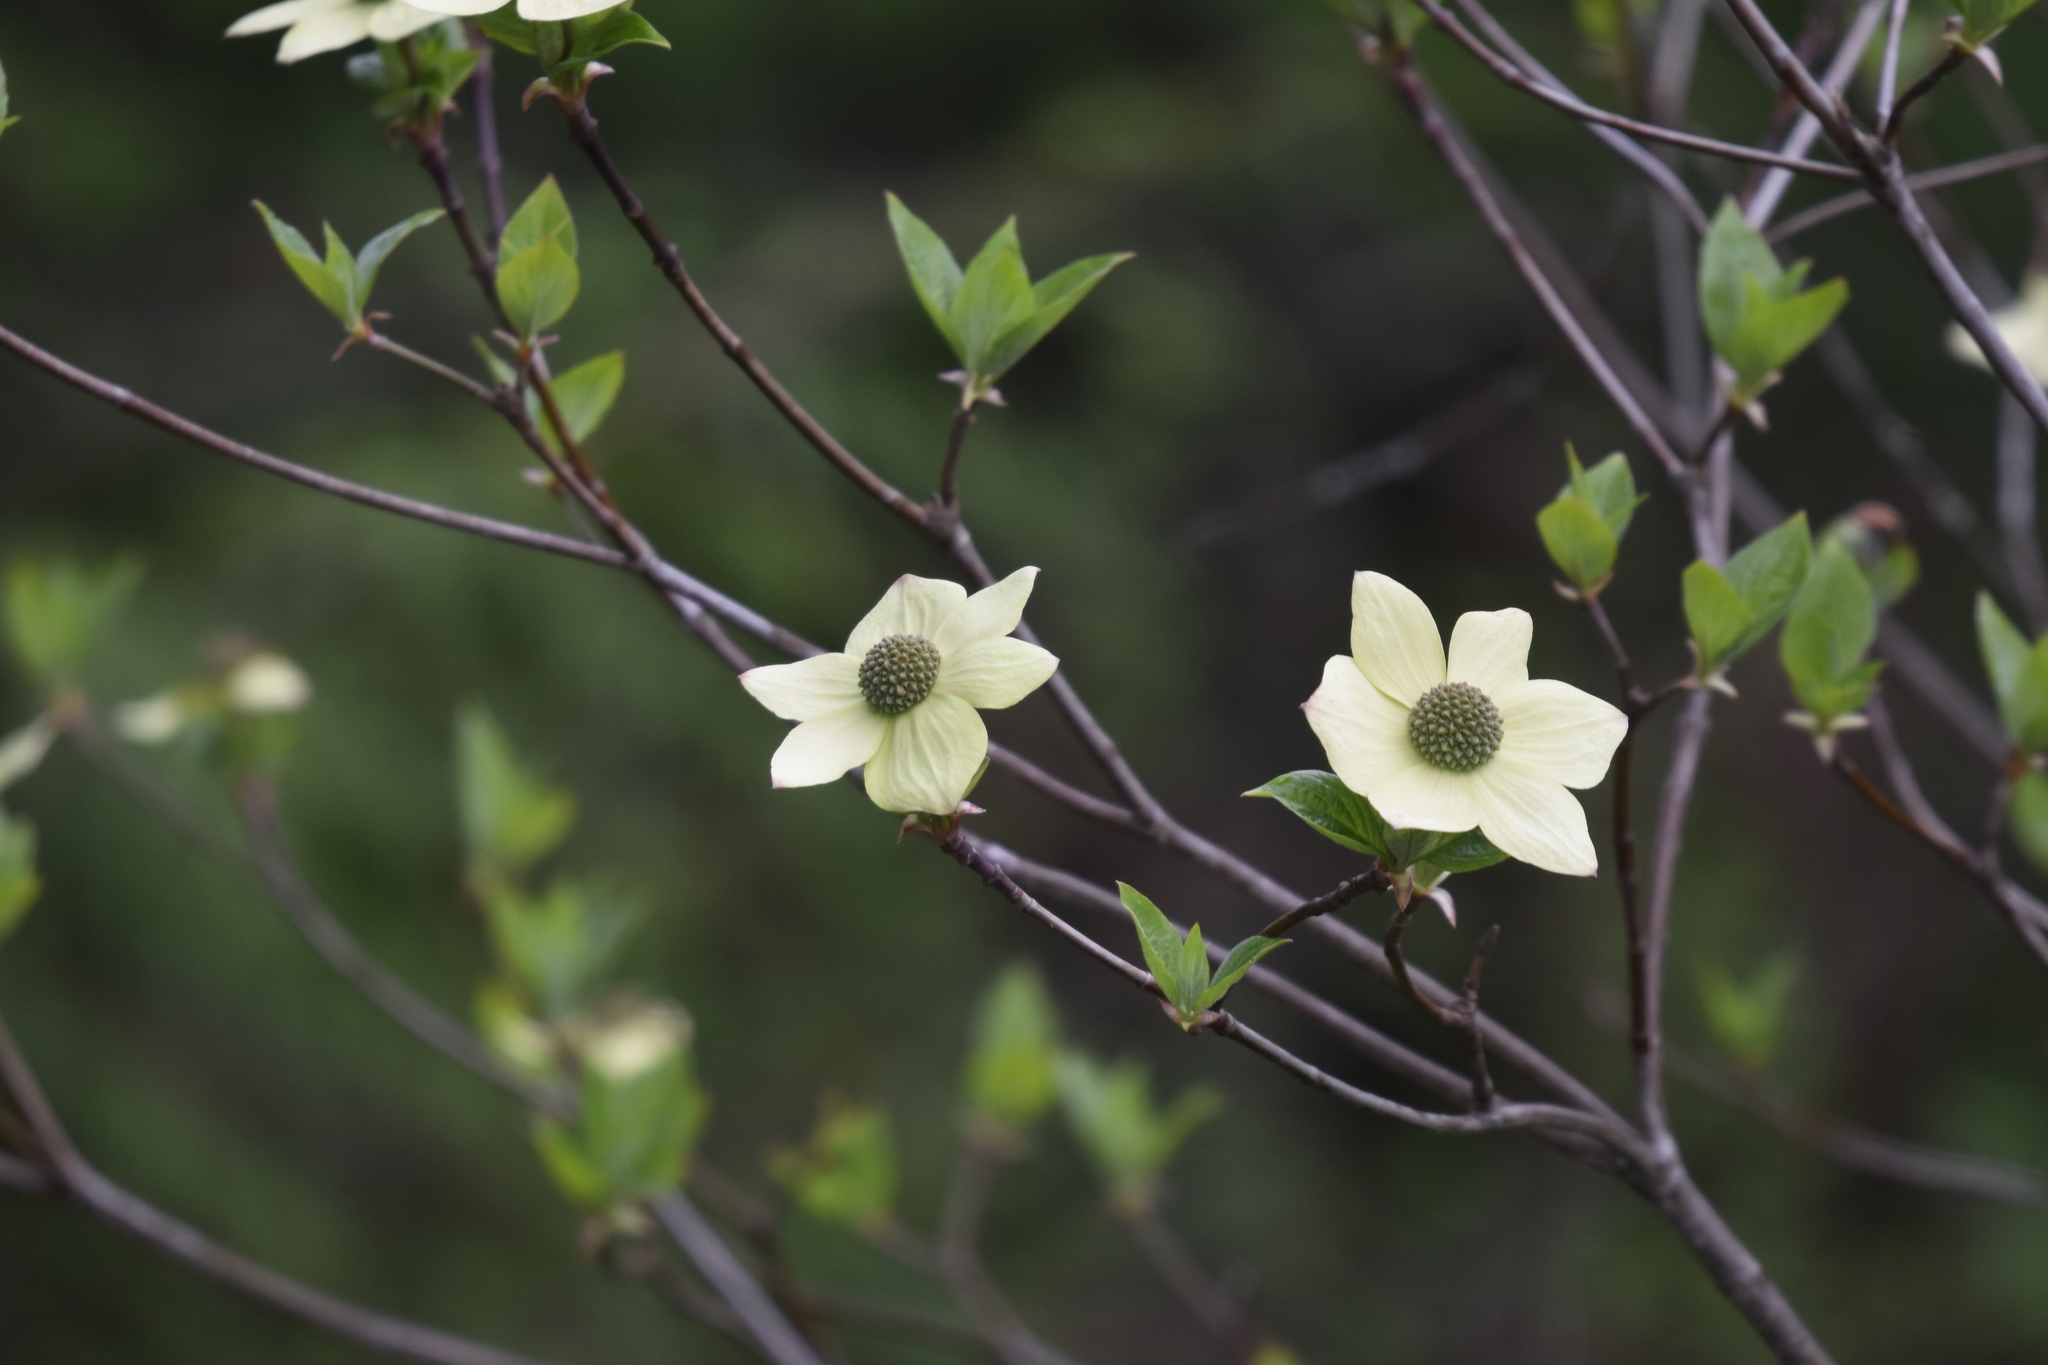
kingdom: Plantae
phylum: Tracheophyta
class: Magnoliopsida
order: Cornales
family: Cornaceae
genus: Cornus
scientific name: Cornus nuttallii
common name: Pacific dogwood
